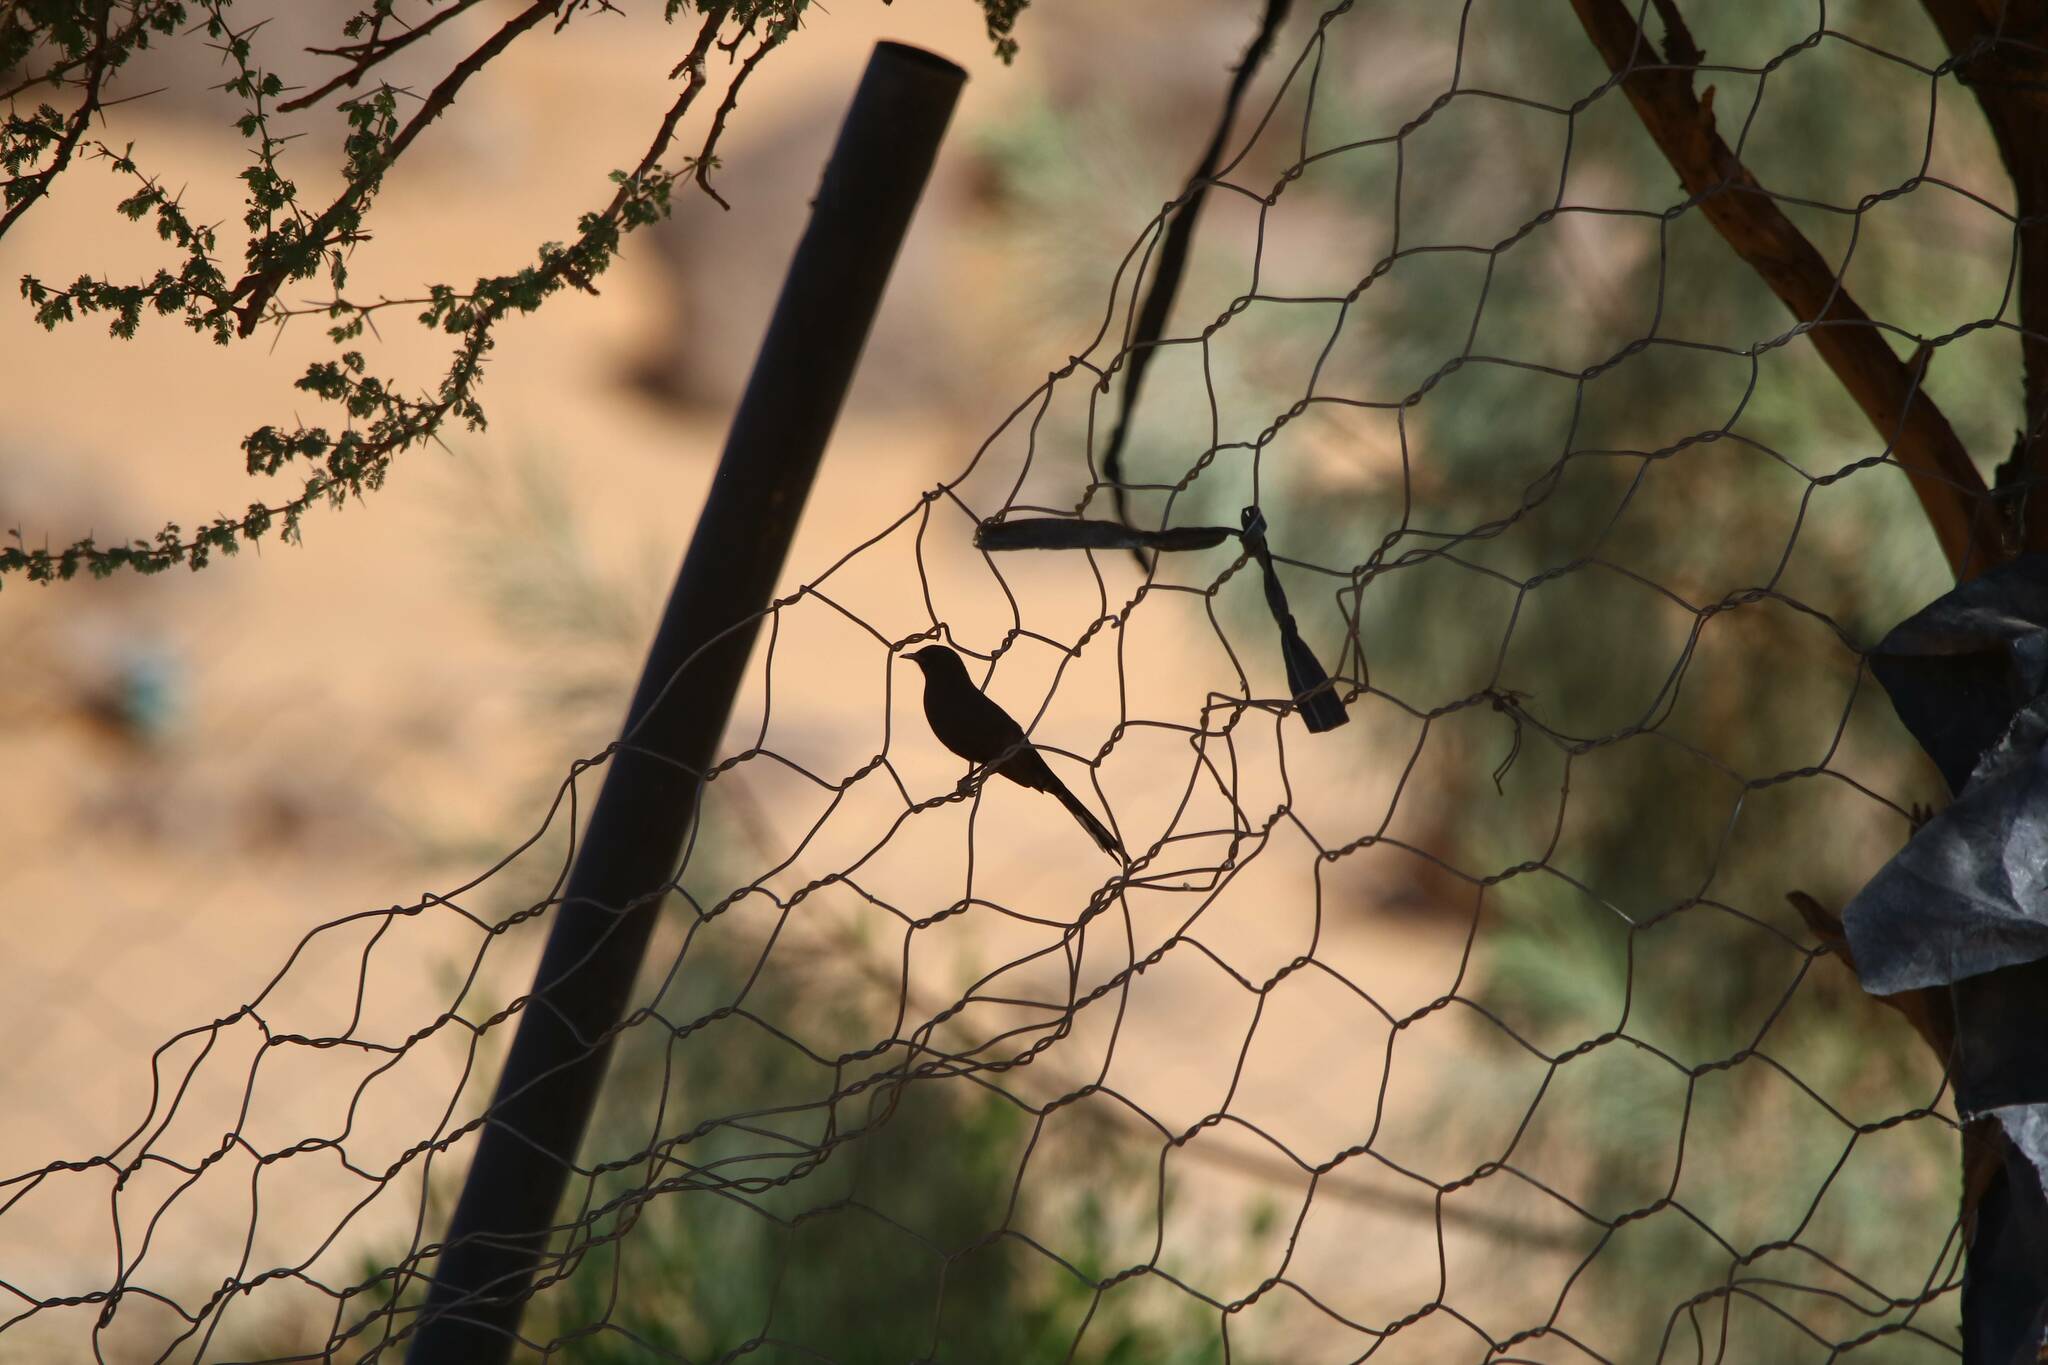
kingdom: Animalia
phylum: Chordata
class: Aves
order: Passeriformes
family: Muscicapidae
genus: Cercotrichas
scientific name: Cercotrichas podobe
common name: Black scrub robin
